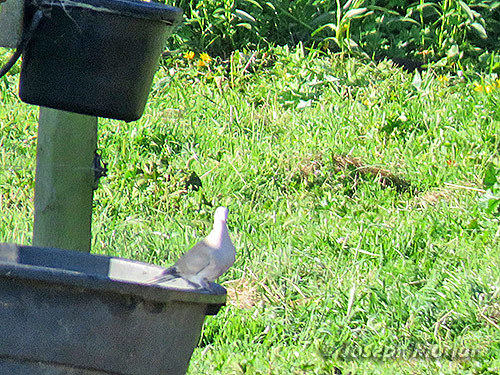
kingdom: Animalia
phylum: Chordata
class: Aves
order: Columbiformes
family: Columbidae
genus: Streptopelia
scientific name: Streptopelia decaocto
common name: Eurasian collared dove
